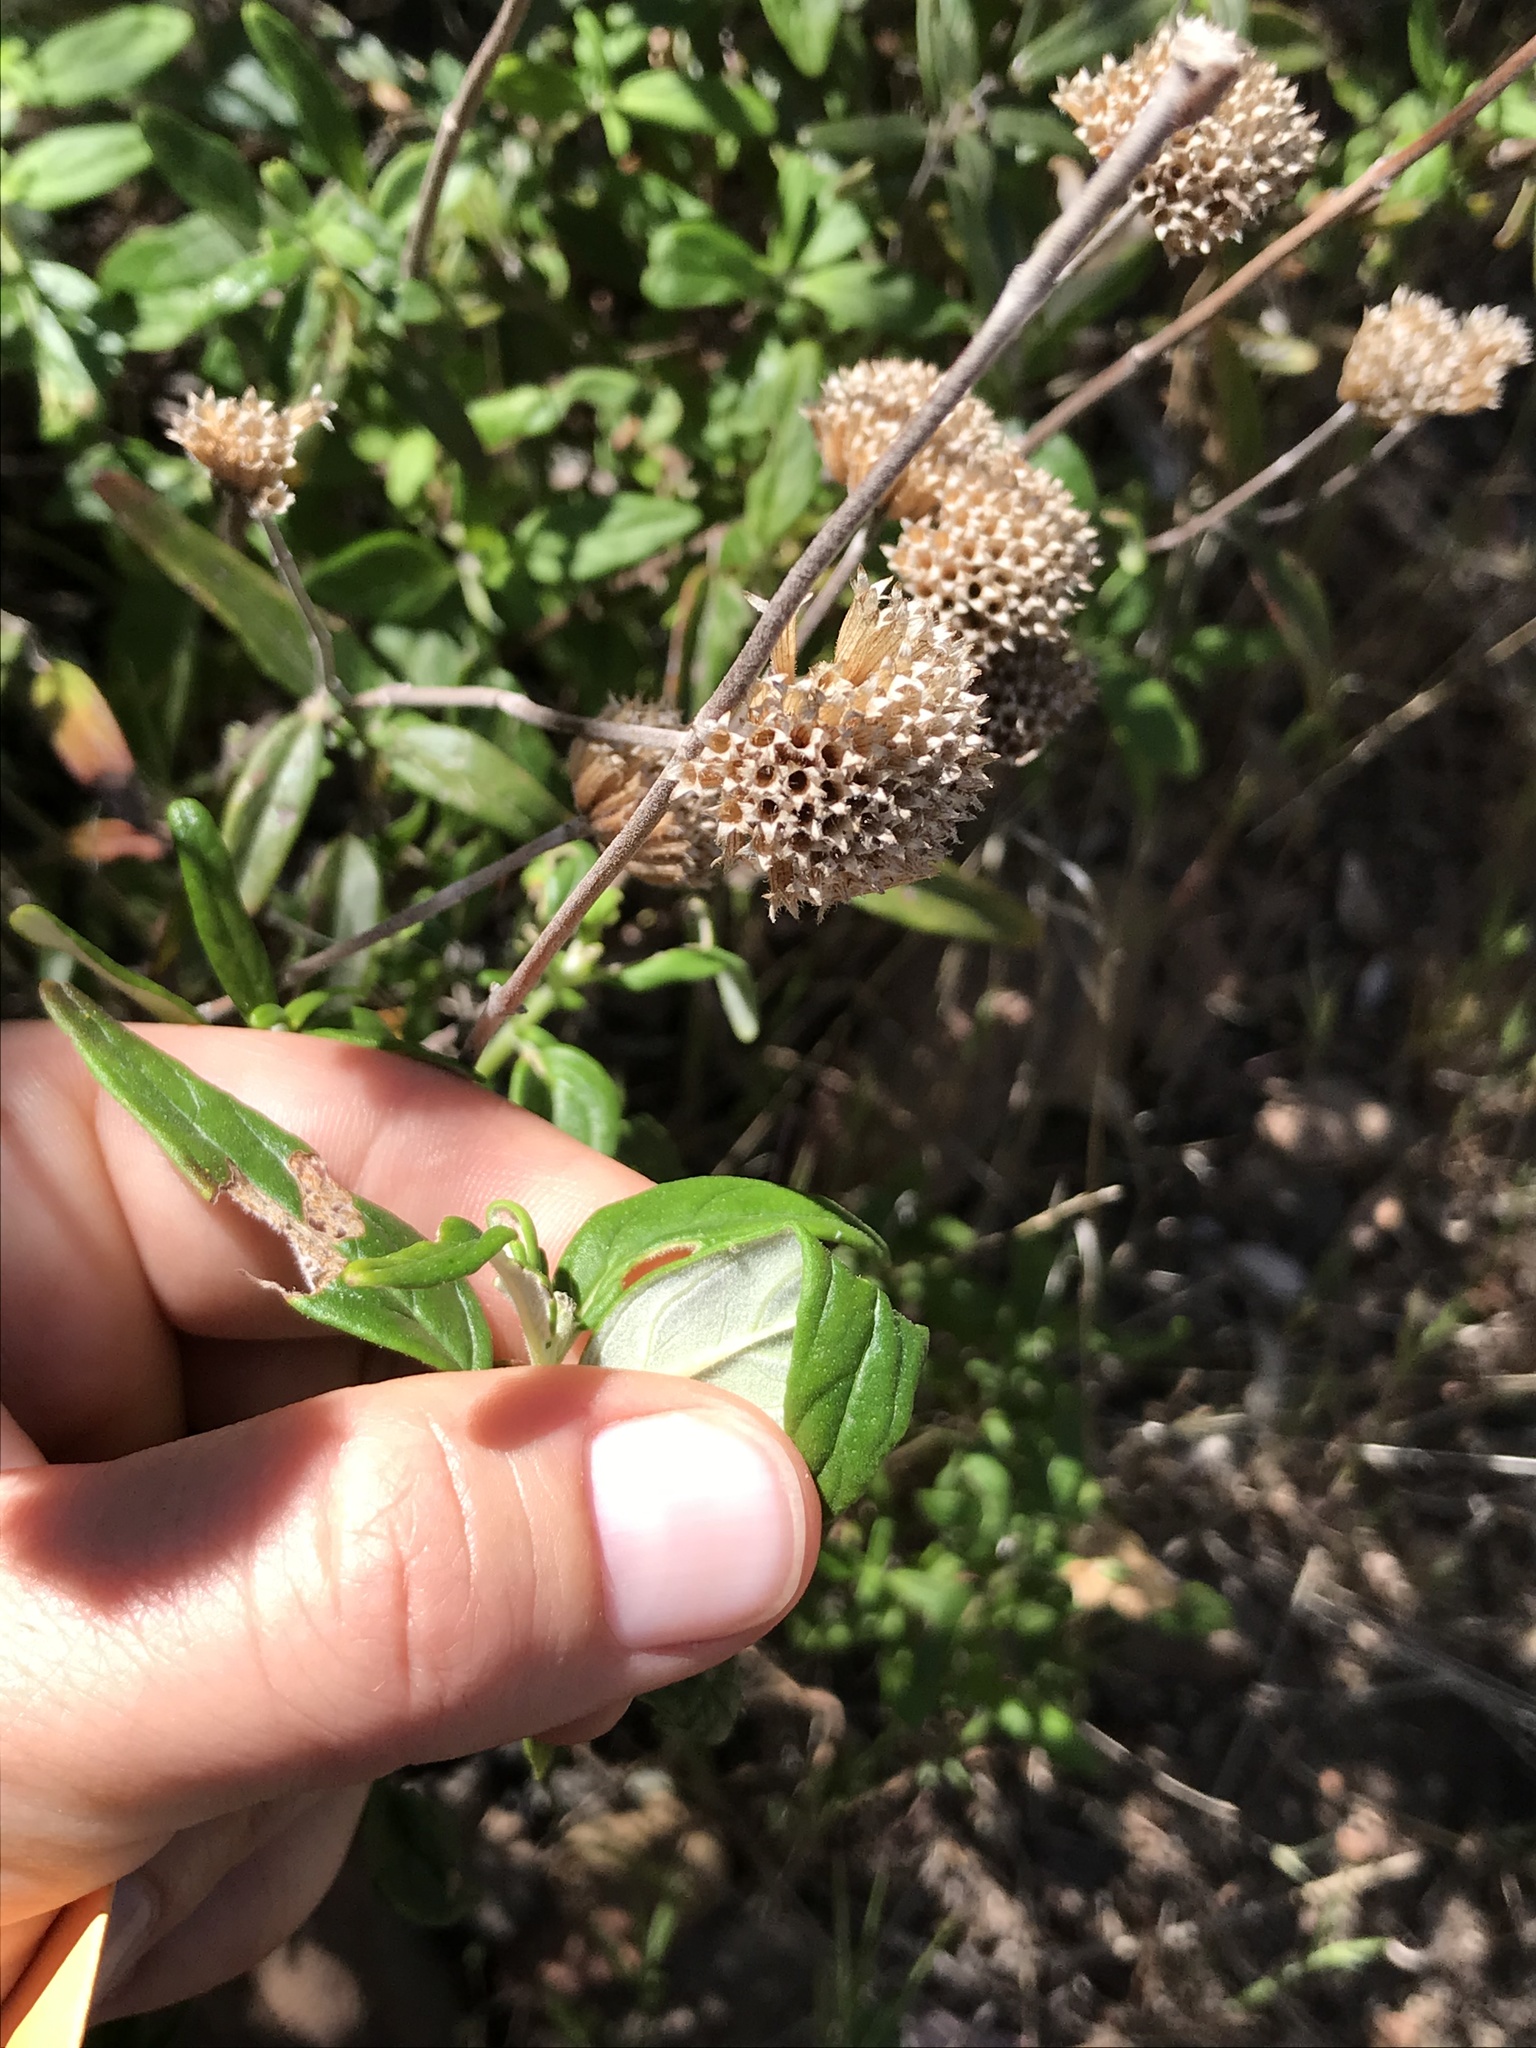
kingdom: Plantae
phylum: Tracheophyta
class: Magnoliopsida
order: Lamiales
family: Lamiaceae
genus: Monardella
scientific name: Monardella hypoleuca
